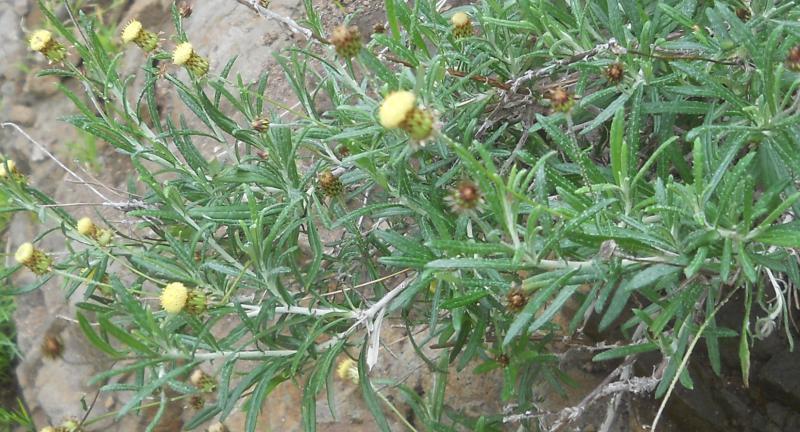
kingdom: Plantae
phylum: Tracheophyta
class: Magnoliopsida
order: Asterales
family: Asteraceae
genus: Phagnalon
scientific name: Phagnalon saxatile
